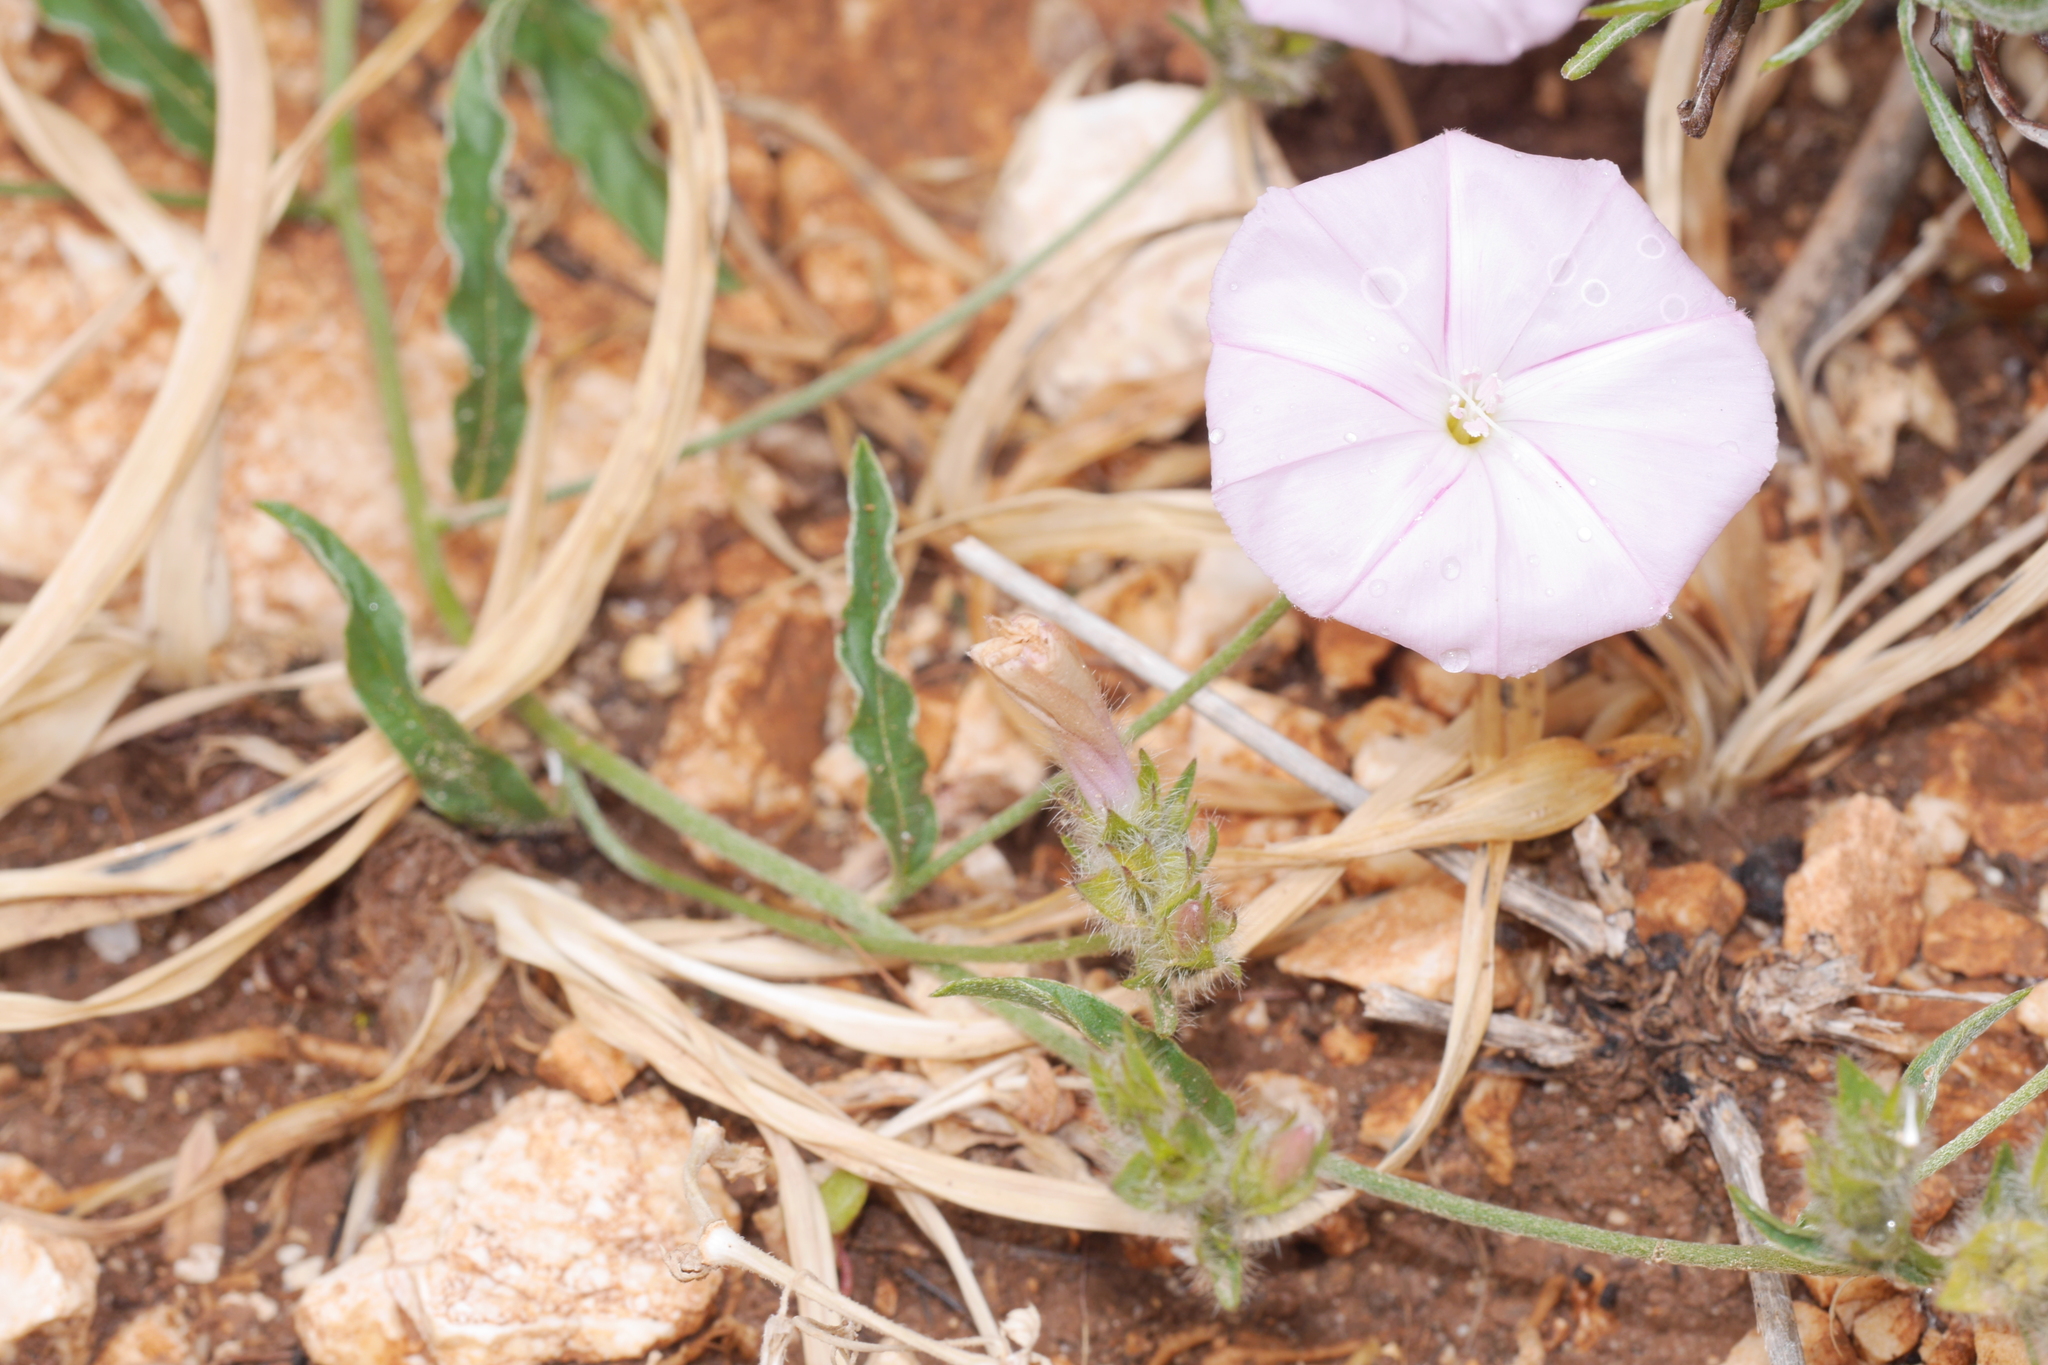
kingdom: Plantae
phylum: Tracheophyta
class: Magnoliopsida
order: Solanales
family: Convolvulaceae
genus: Convolvulus
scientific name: Convolvulus cantabrica
